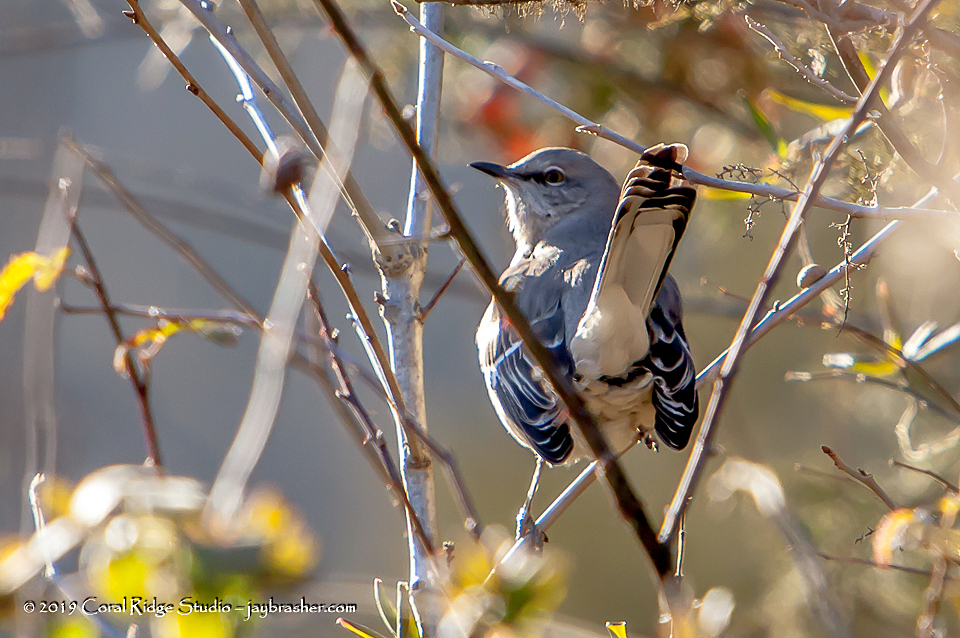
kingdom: Animalia
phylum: Chordata
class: Aves
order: Passeriformes
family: Mimidae
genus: Mimus
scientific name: Mimus polyglottos
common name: Northern mockingbird
